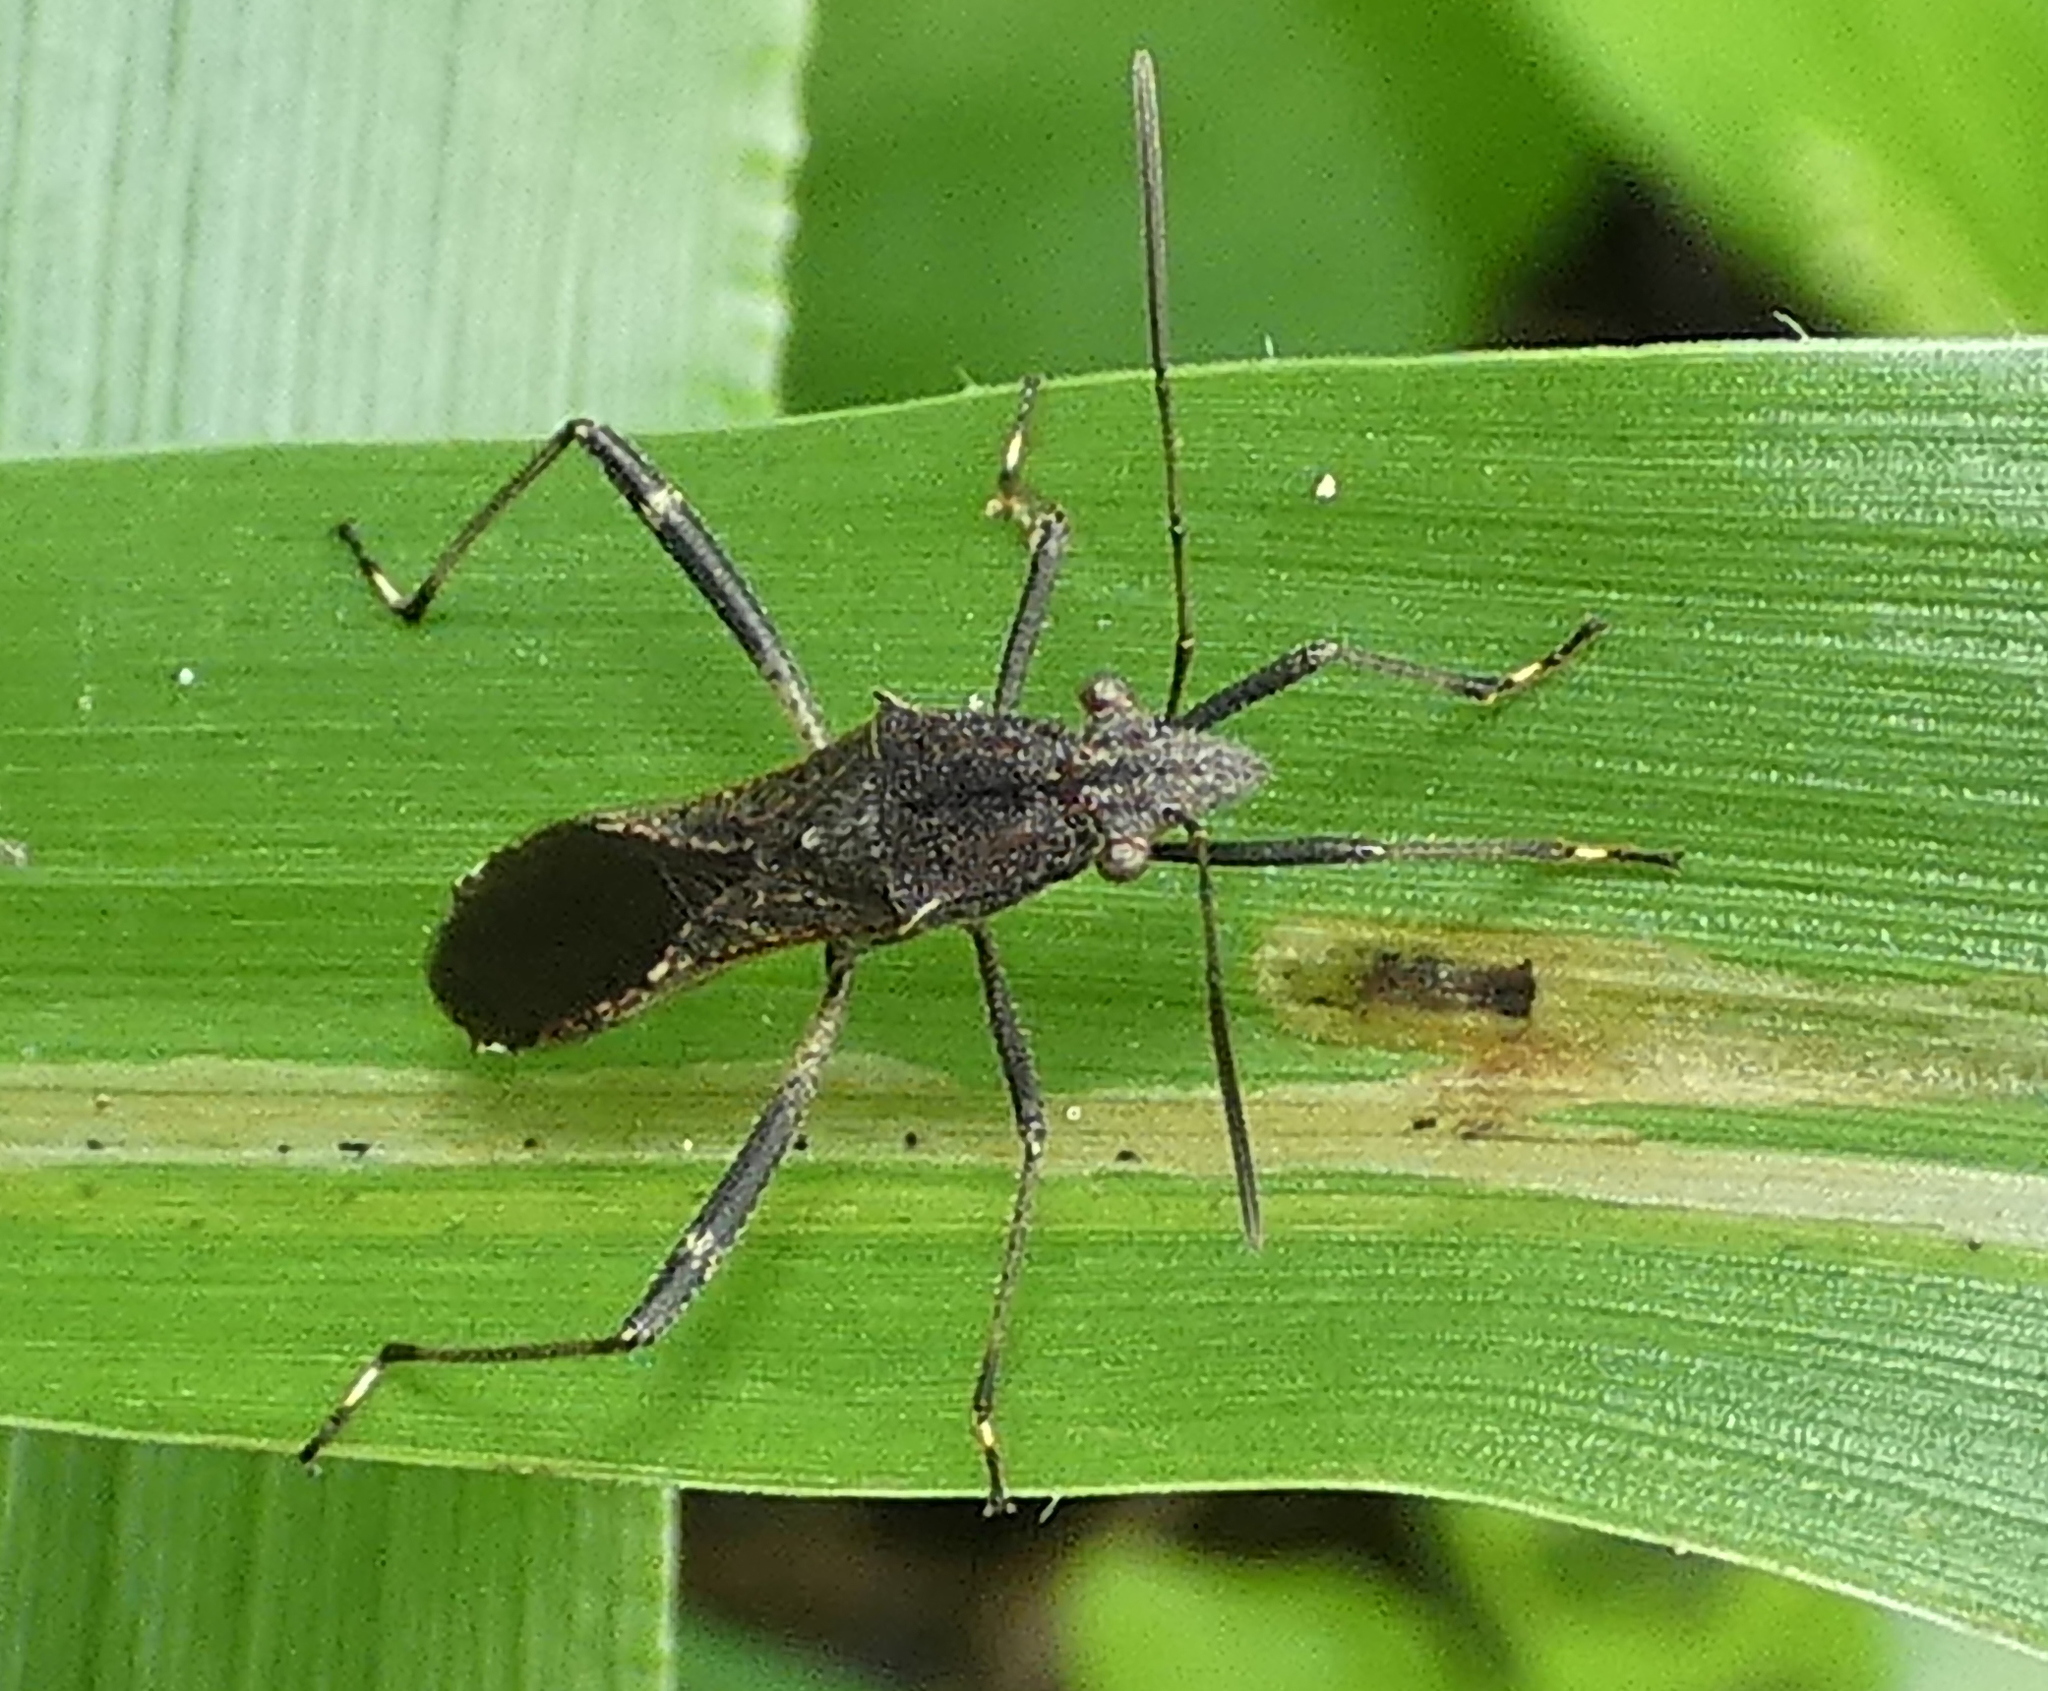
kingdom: Animalia
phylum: Arthropoda
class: Insecta
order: Hemiptera
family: Alydidae
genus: Neomegalotomus
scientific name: Neomegalotomus parvus
